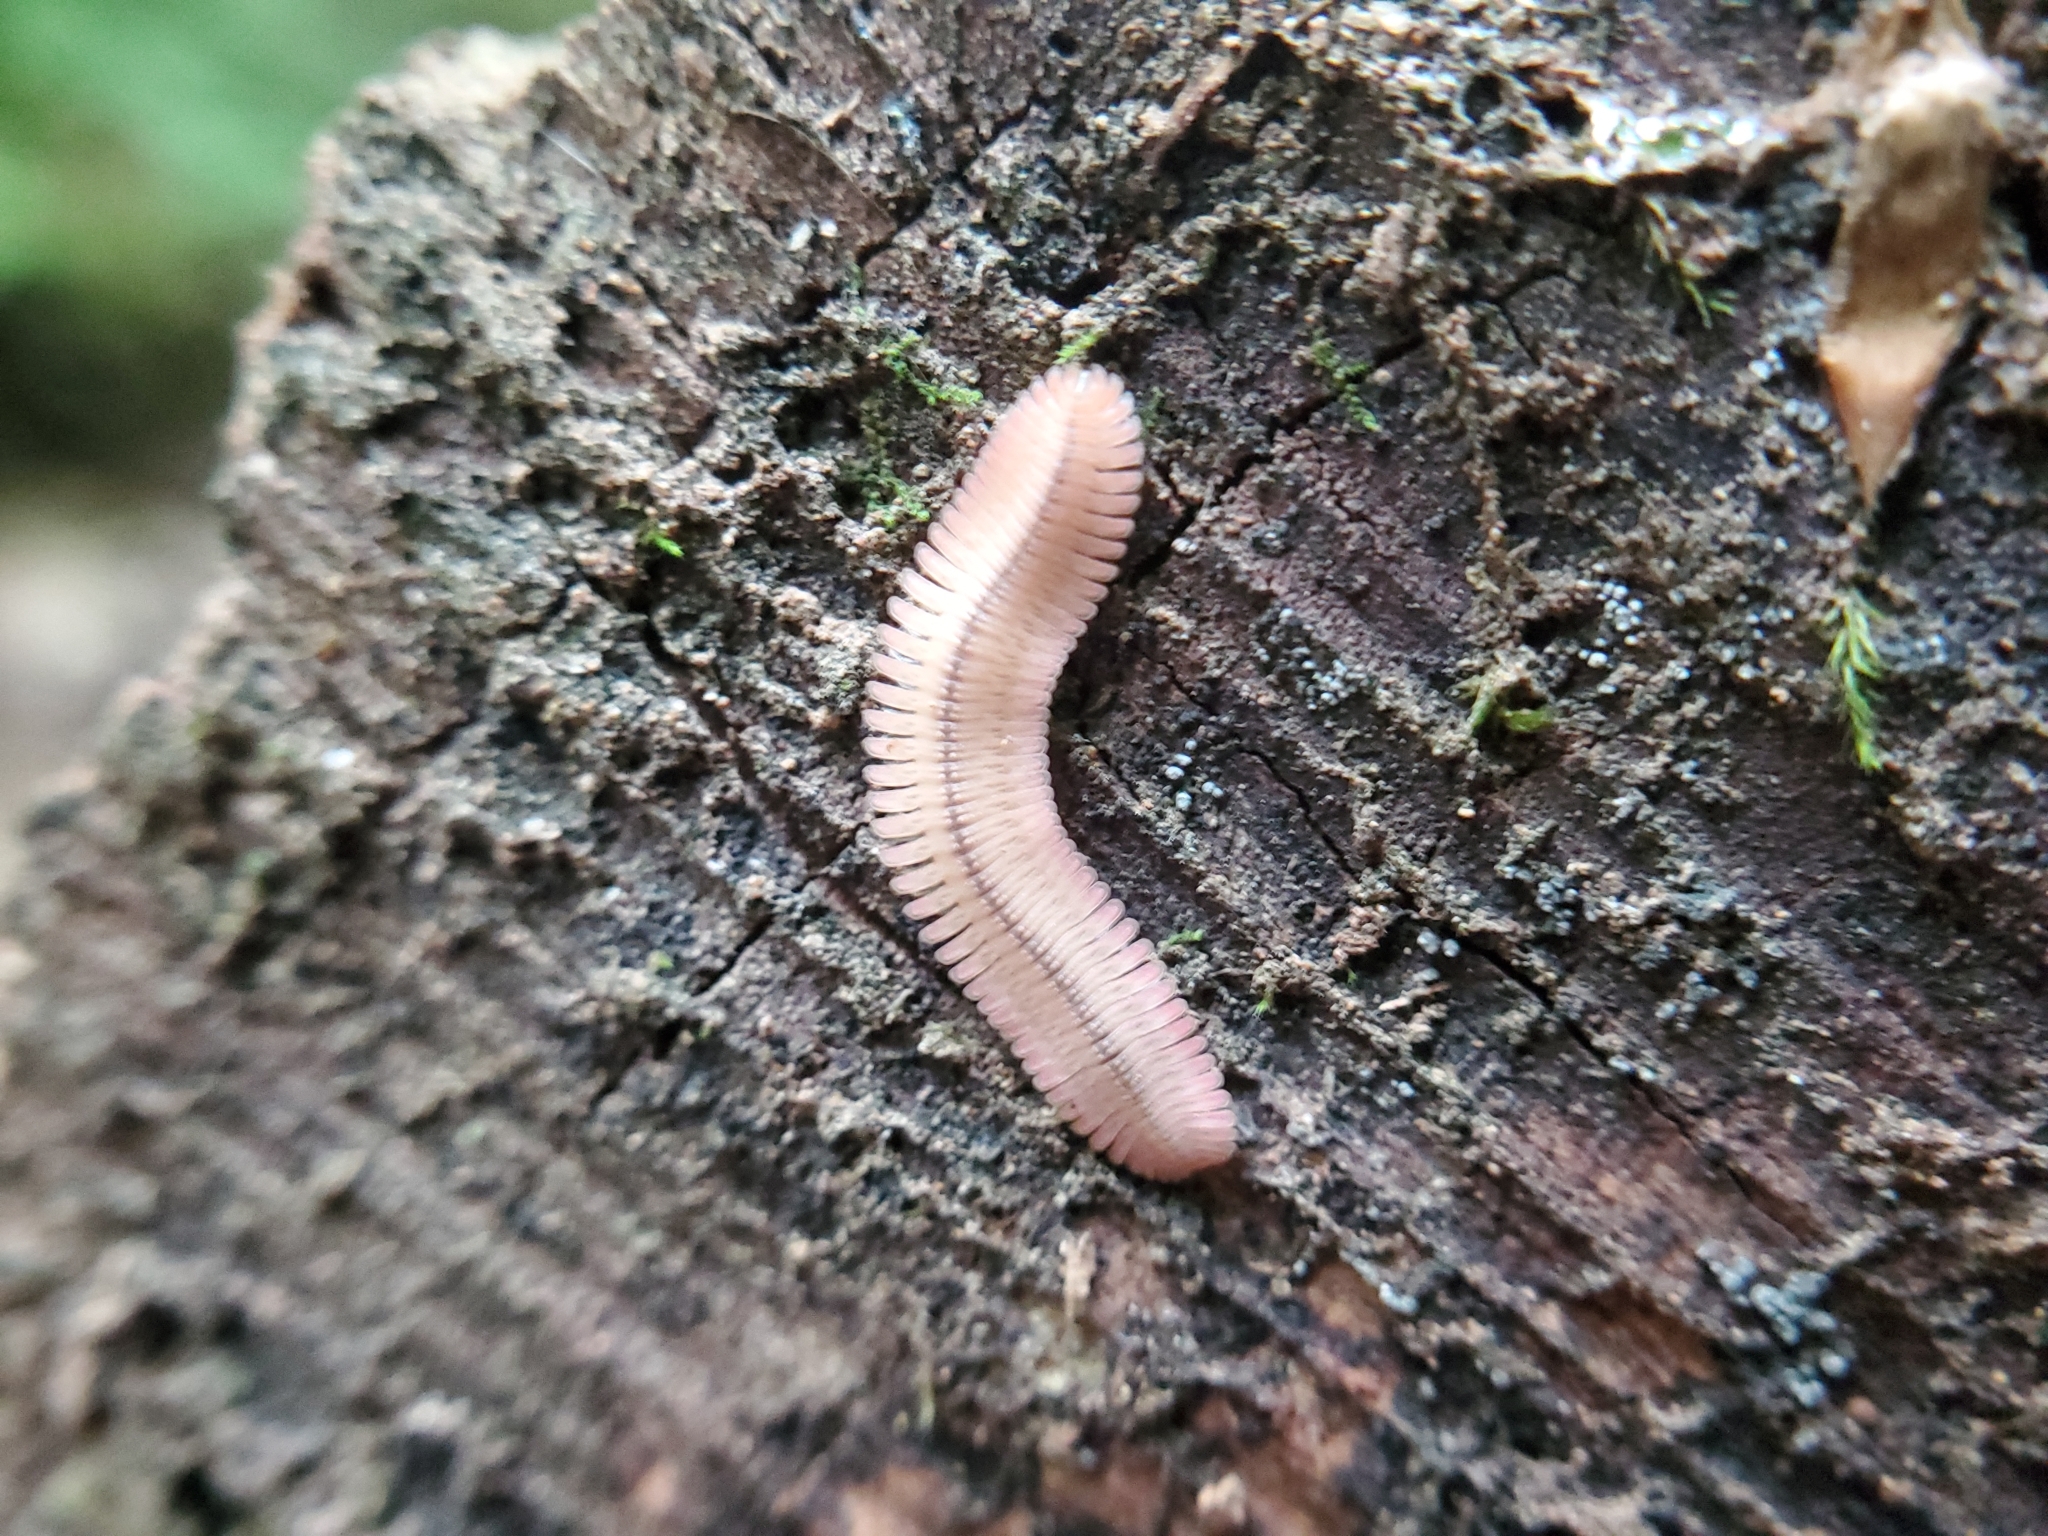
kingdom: Animalia
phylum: Arthropoda
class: Diplopoda
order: Platydesmida
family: Andrognathidae
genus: Brachycybe
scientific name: Brachycybe lecontii
